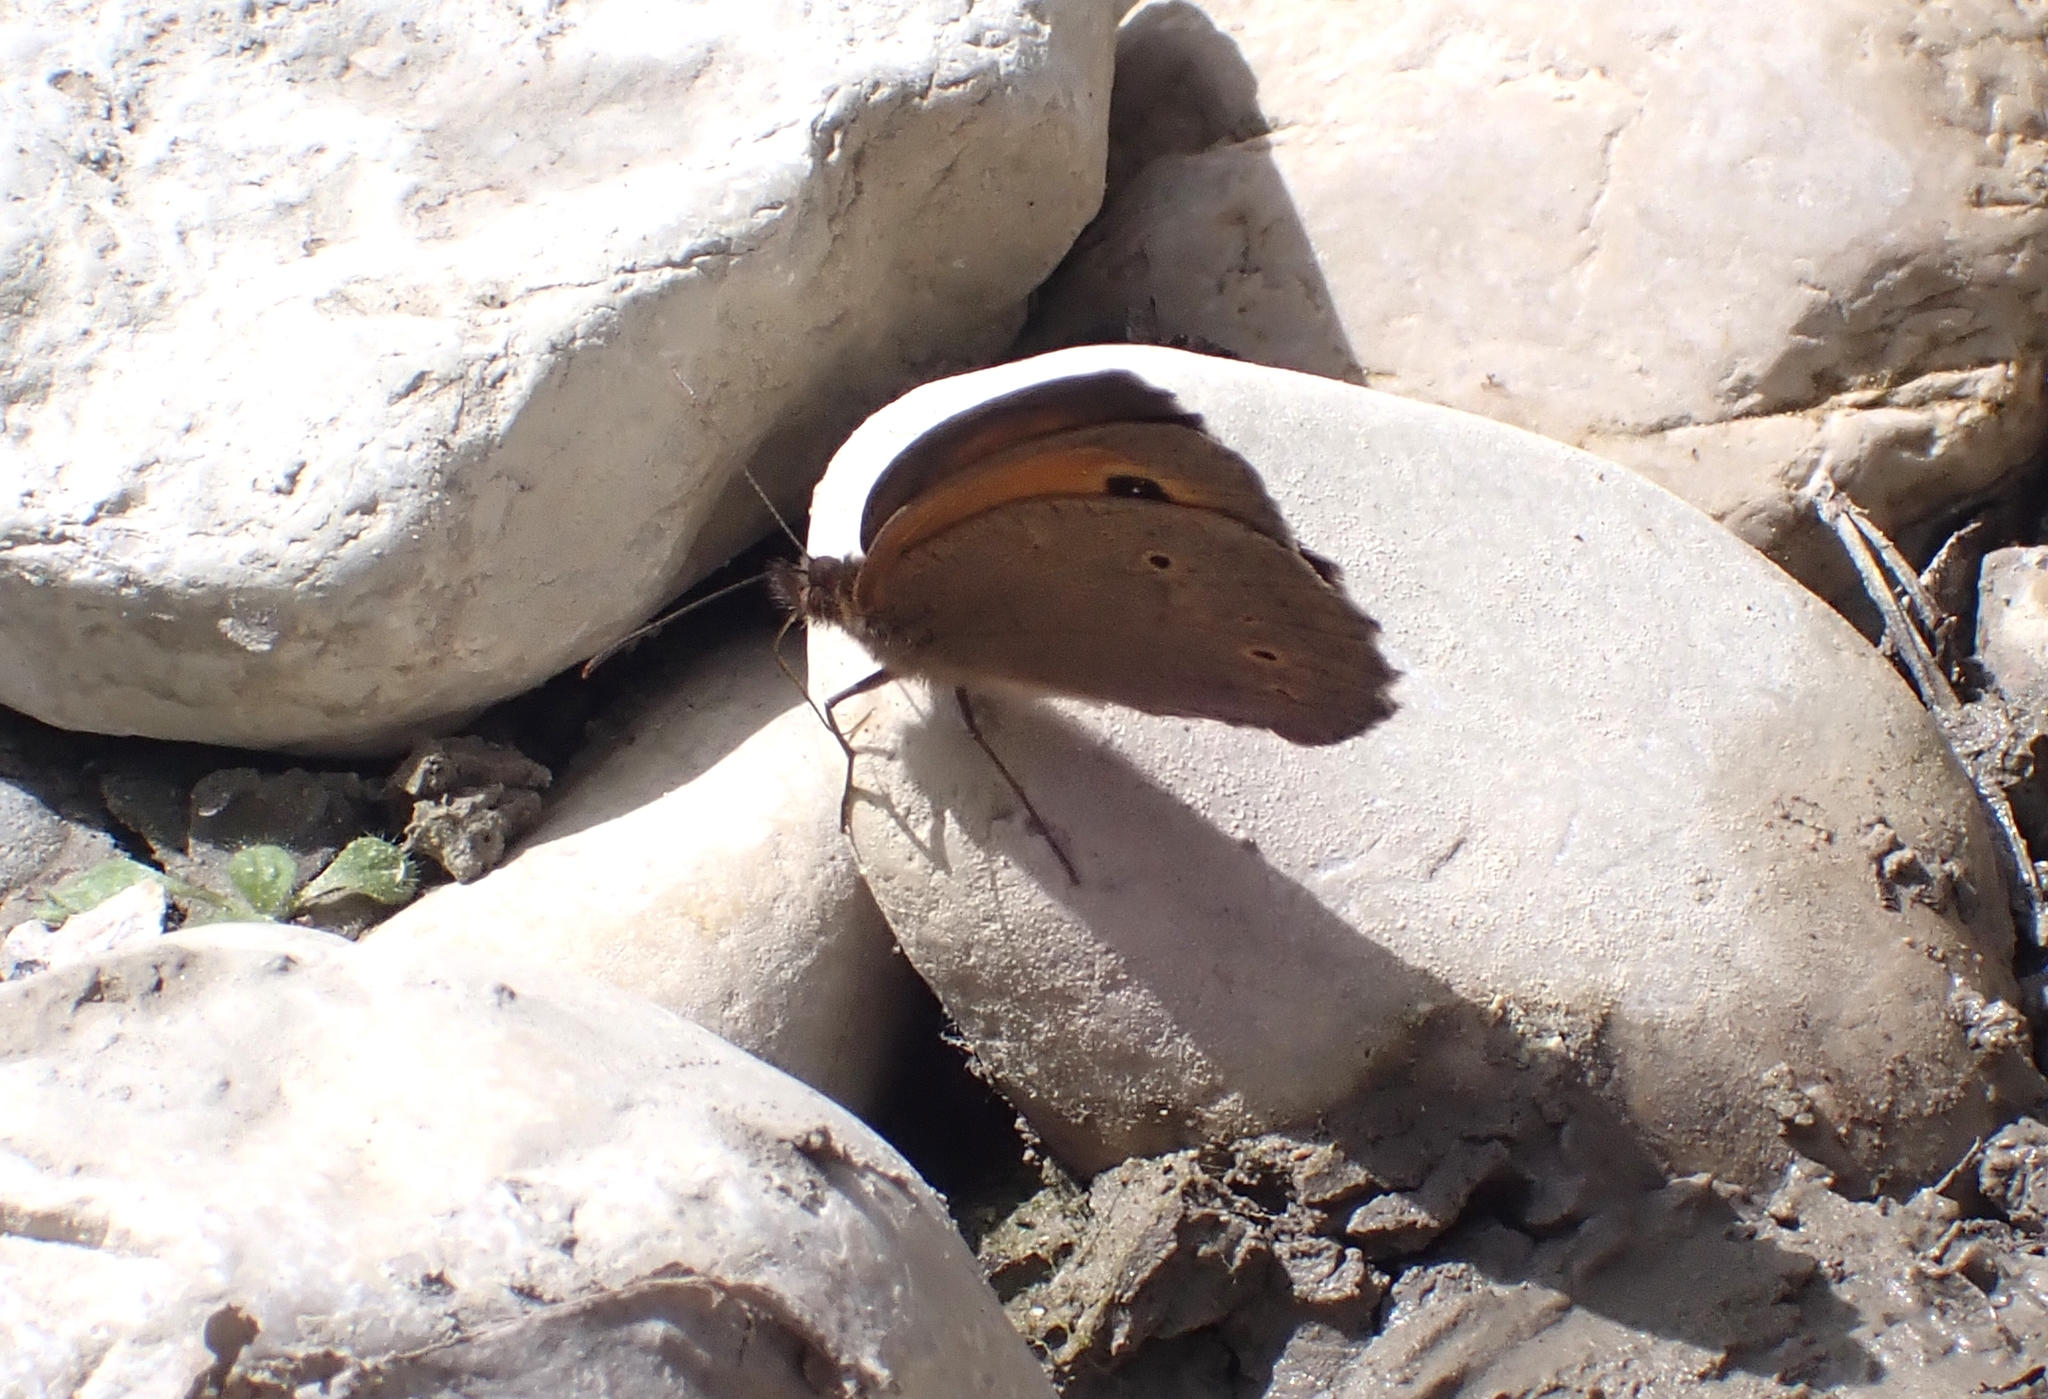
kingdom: Animalia
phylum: Arthropoda
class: Insecta
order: Lepidoptera
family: Nymphalidae
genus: Maniola
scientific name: Maniola jurtina
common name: Meadow brown
